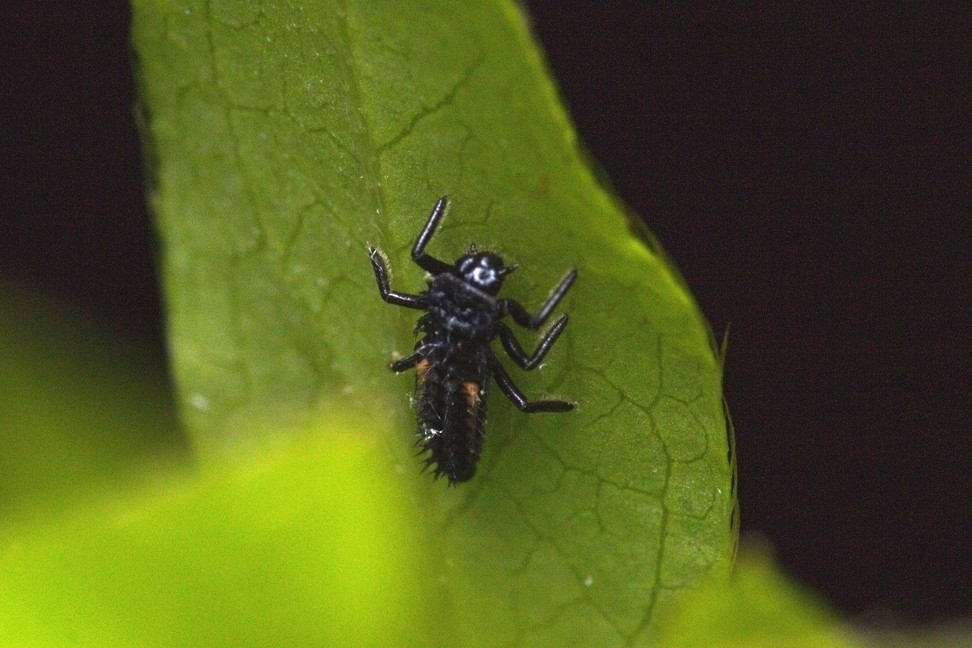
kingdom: Animalia
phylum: Arthropoda
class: Insecta
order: Coleoptera
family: Coccinellidae
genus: Harmonia
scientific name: Harmonia axyridis
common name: Harlequin ladybird
